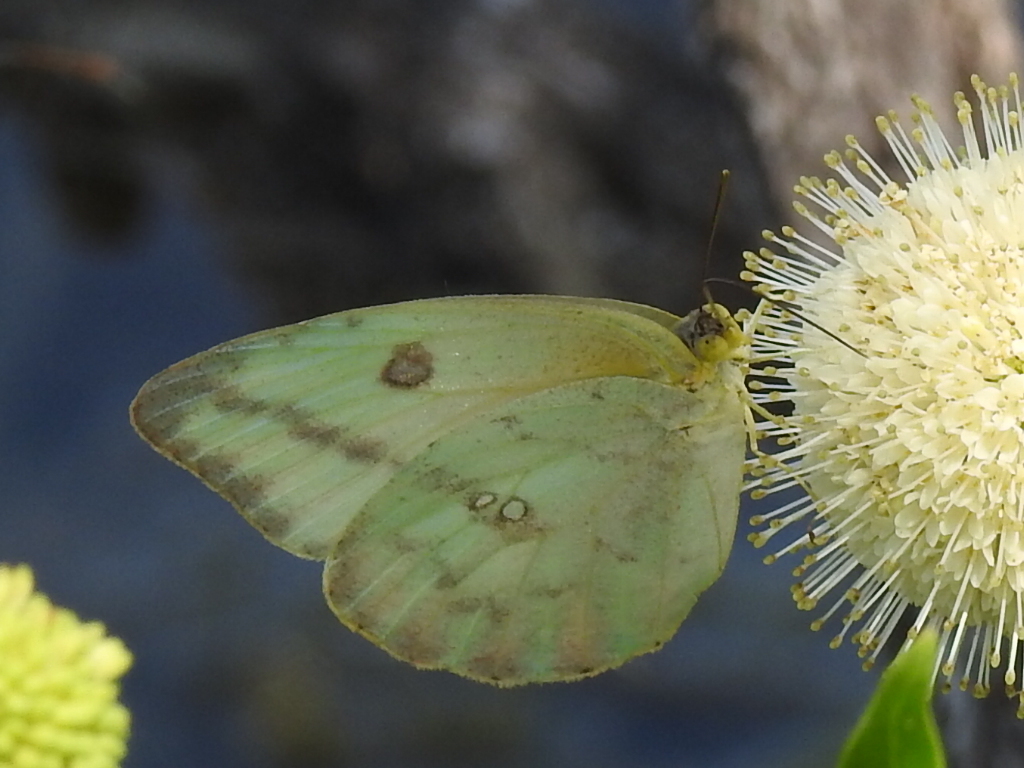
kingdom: Animalia
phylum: Arthropoda
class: Insecta
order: Lepidoptera
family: Pieridae
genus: Phoebis
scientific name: Phoebis agarithe
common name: Large orange sulphur
